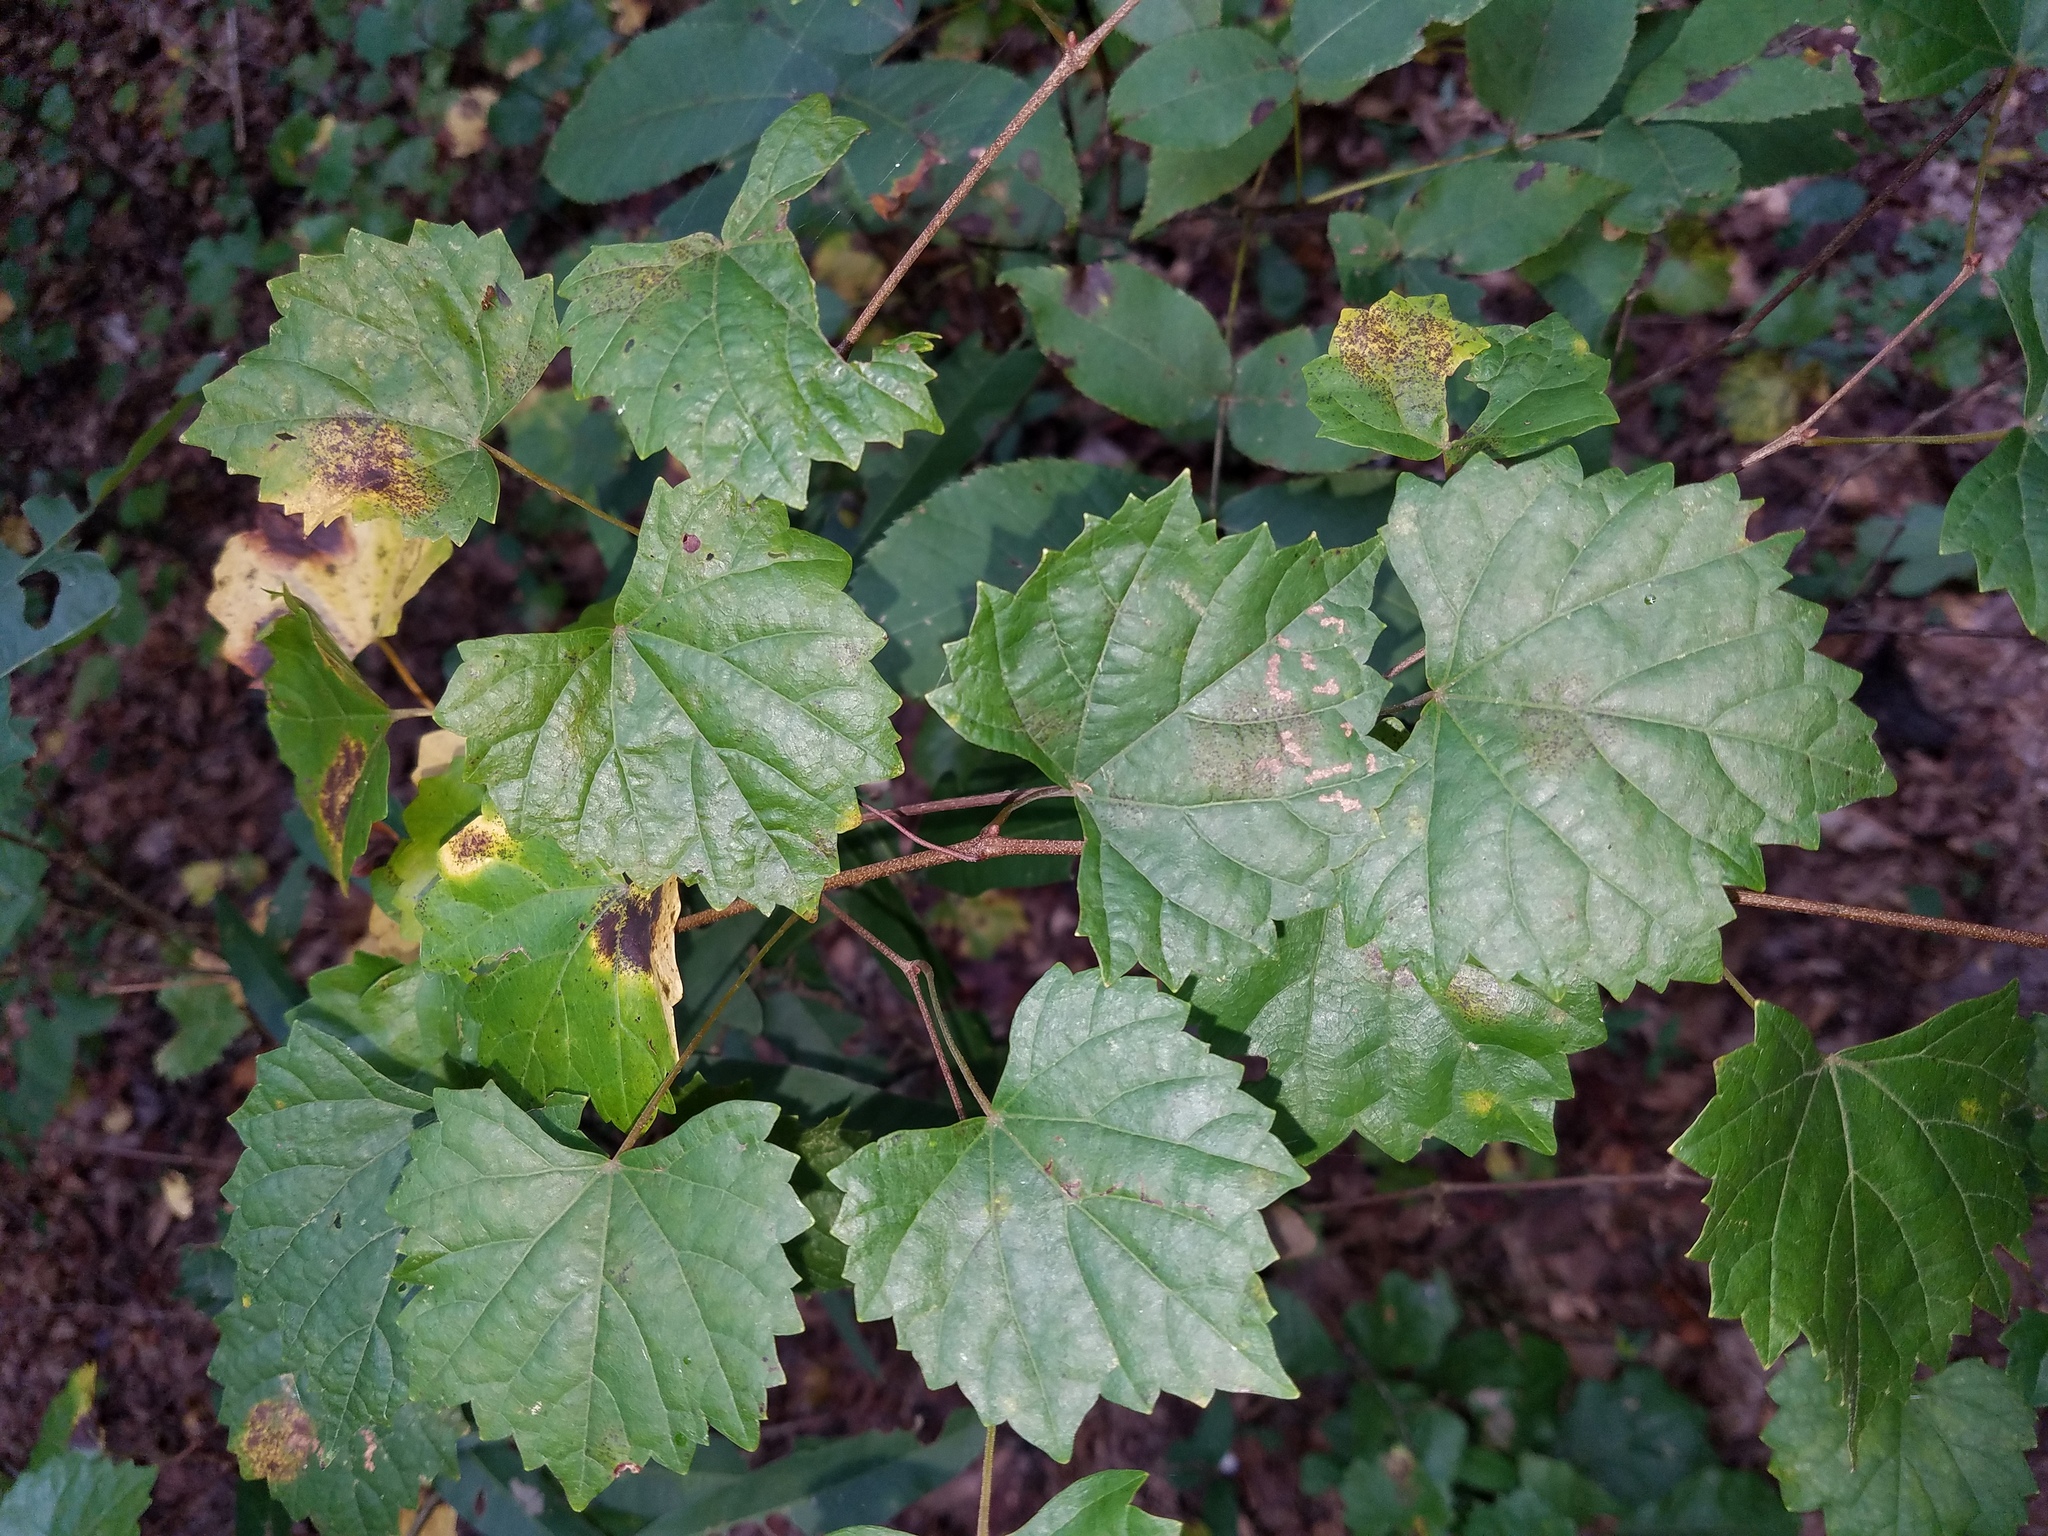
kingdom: Plantae
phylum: Tracheophyta
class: Magnoliopsida
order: Vitales
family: Vitaceae
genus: Vitis
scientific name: Vitis rotundifolia
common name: Muscadine grape
